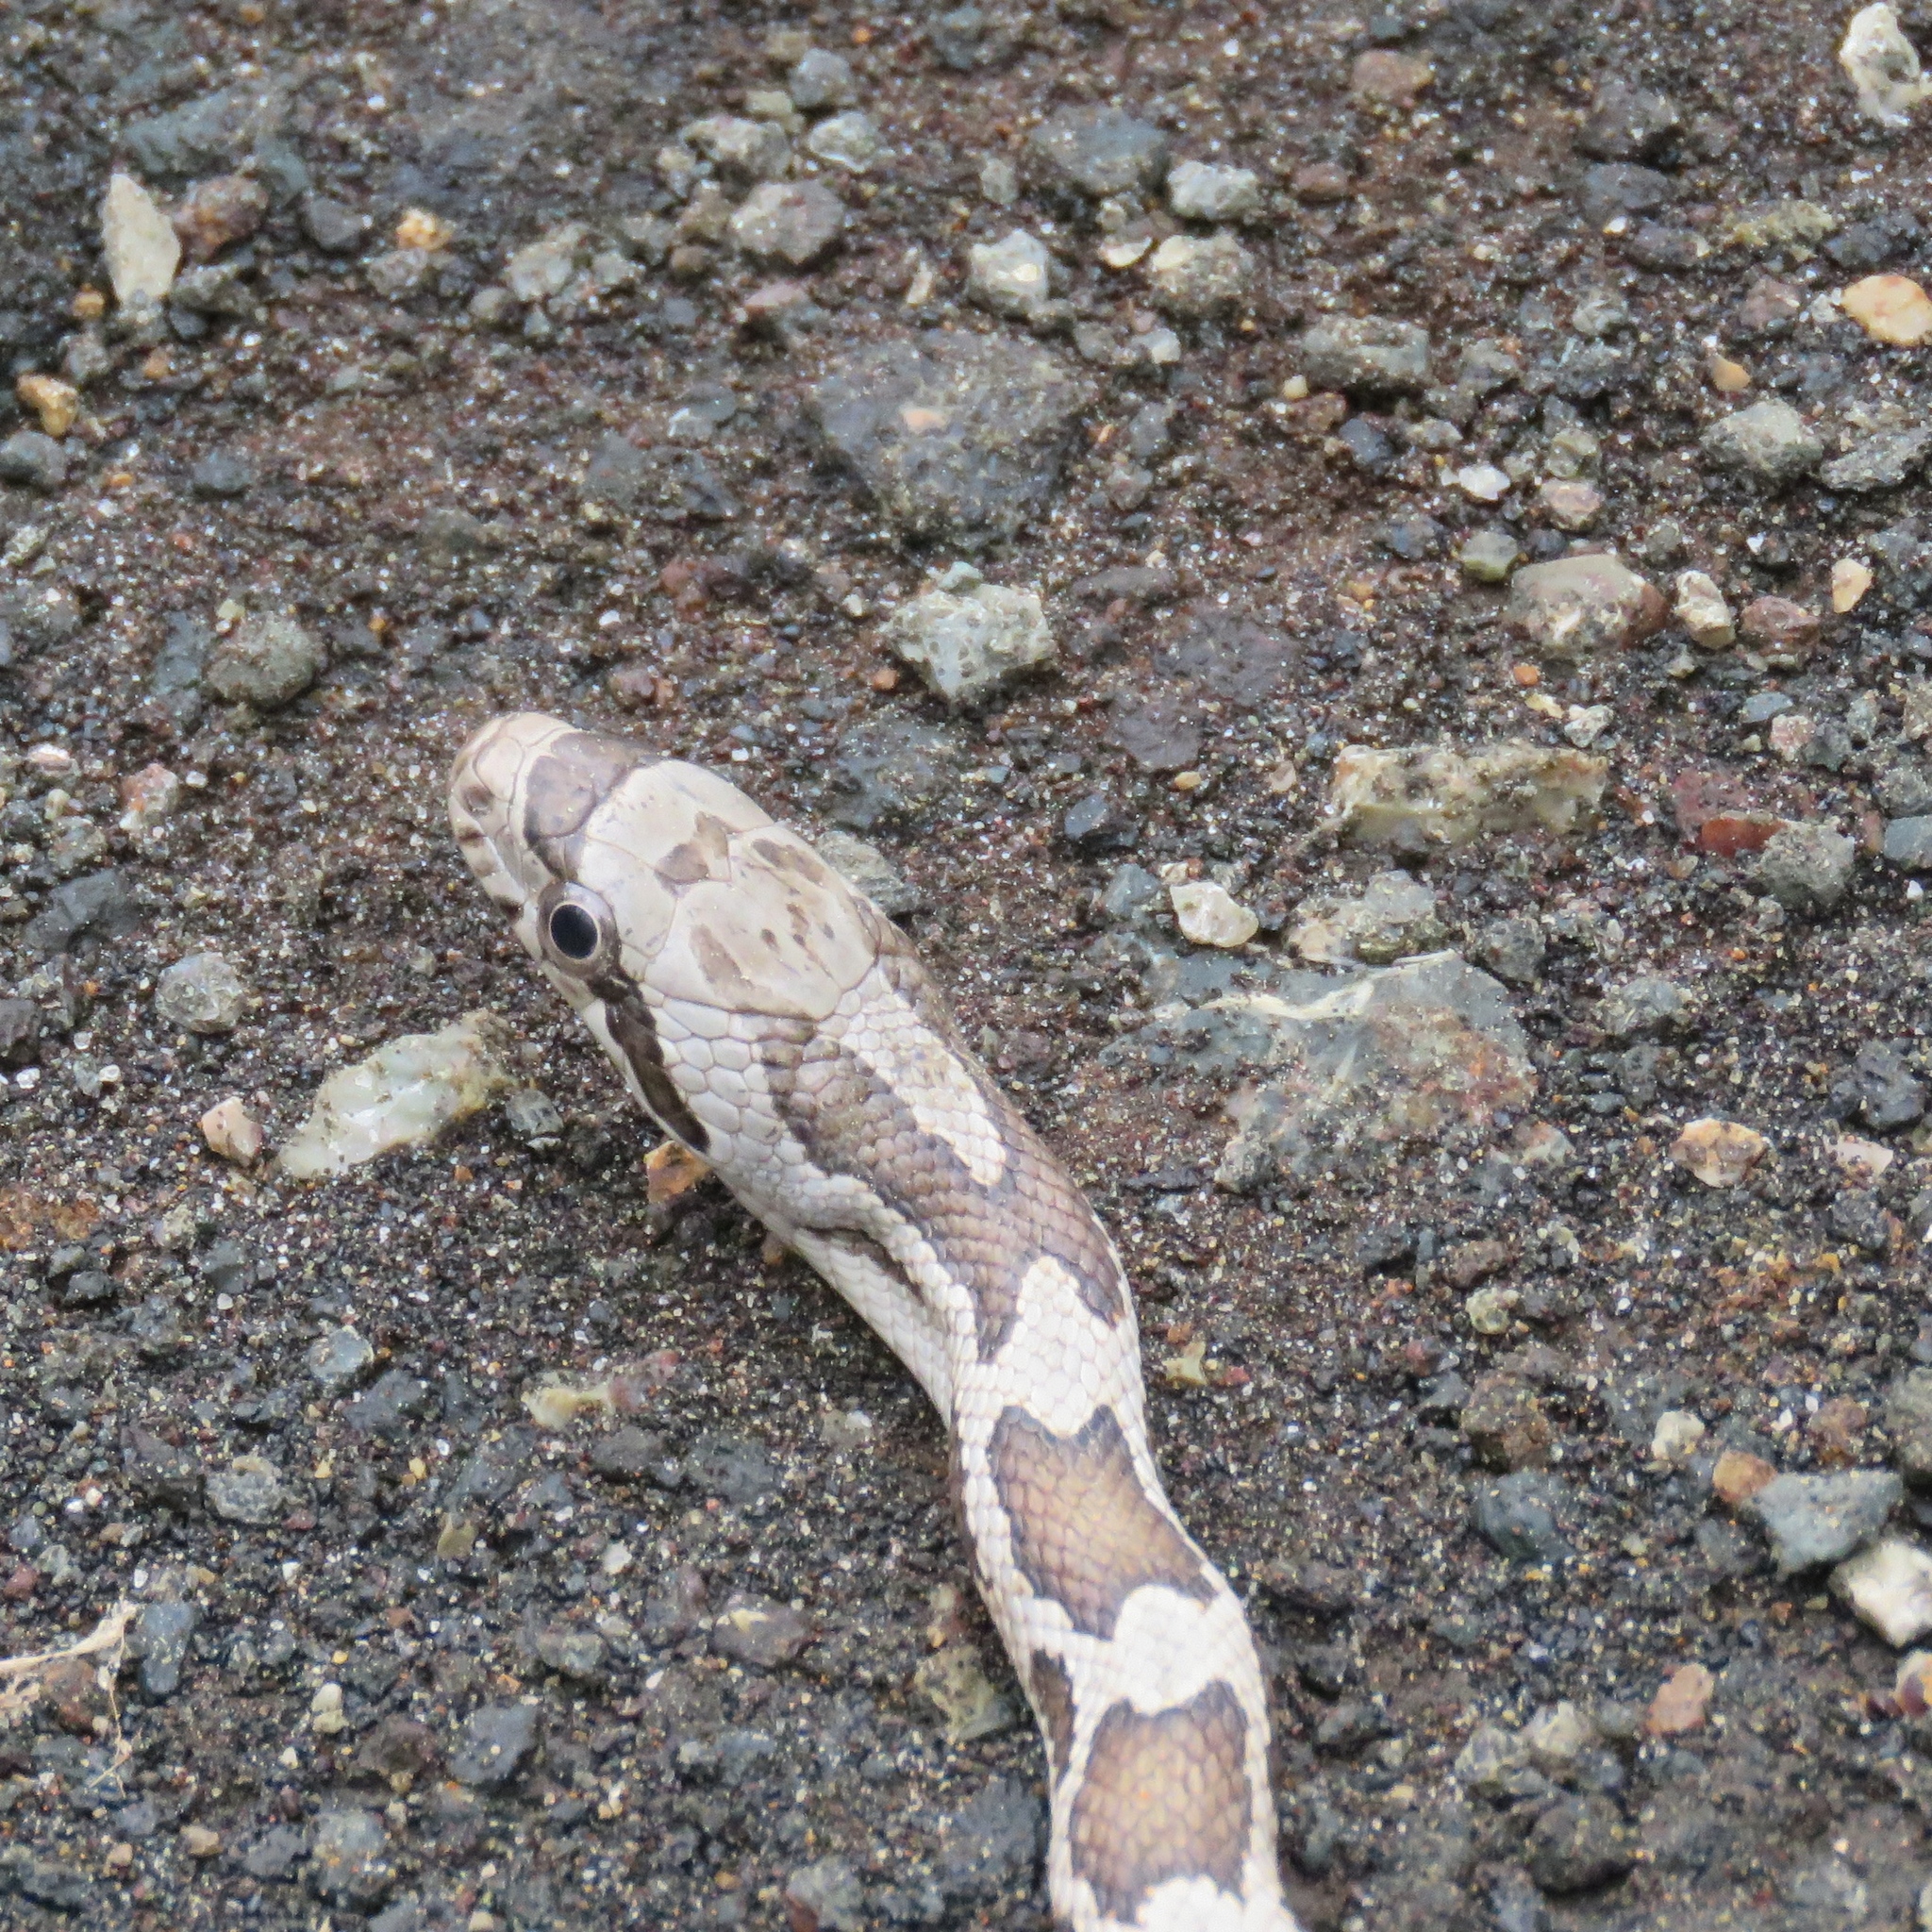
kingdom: Animalia
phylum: Chordata
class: Squamata
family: Colubridae
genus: Pantherophis
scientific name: Pantherophis obsoletus
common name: Black rat snake
